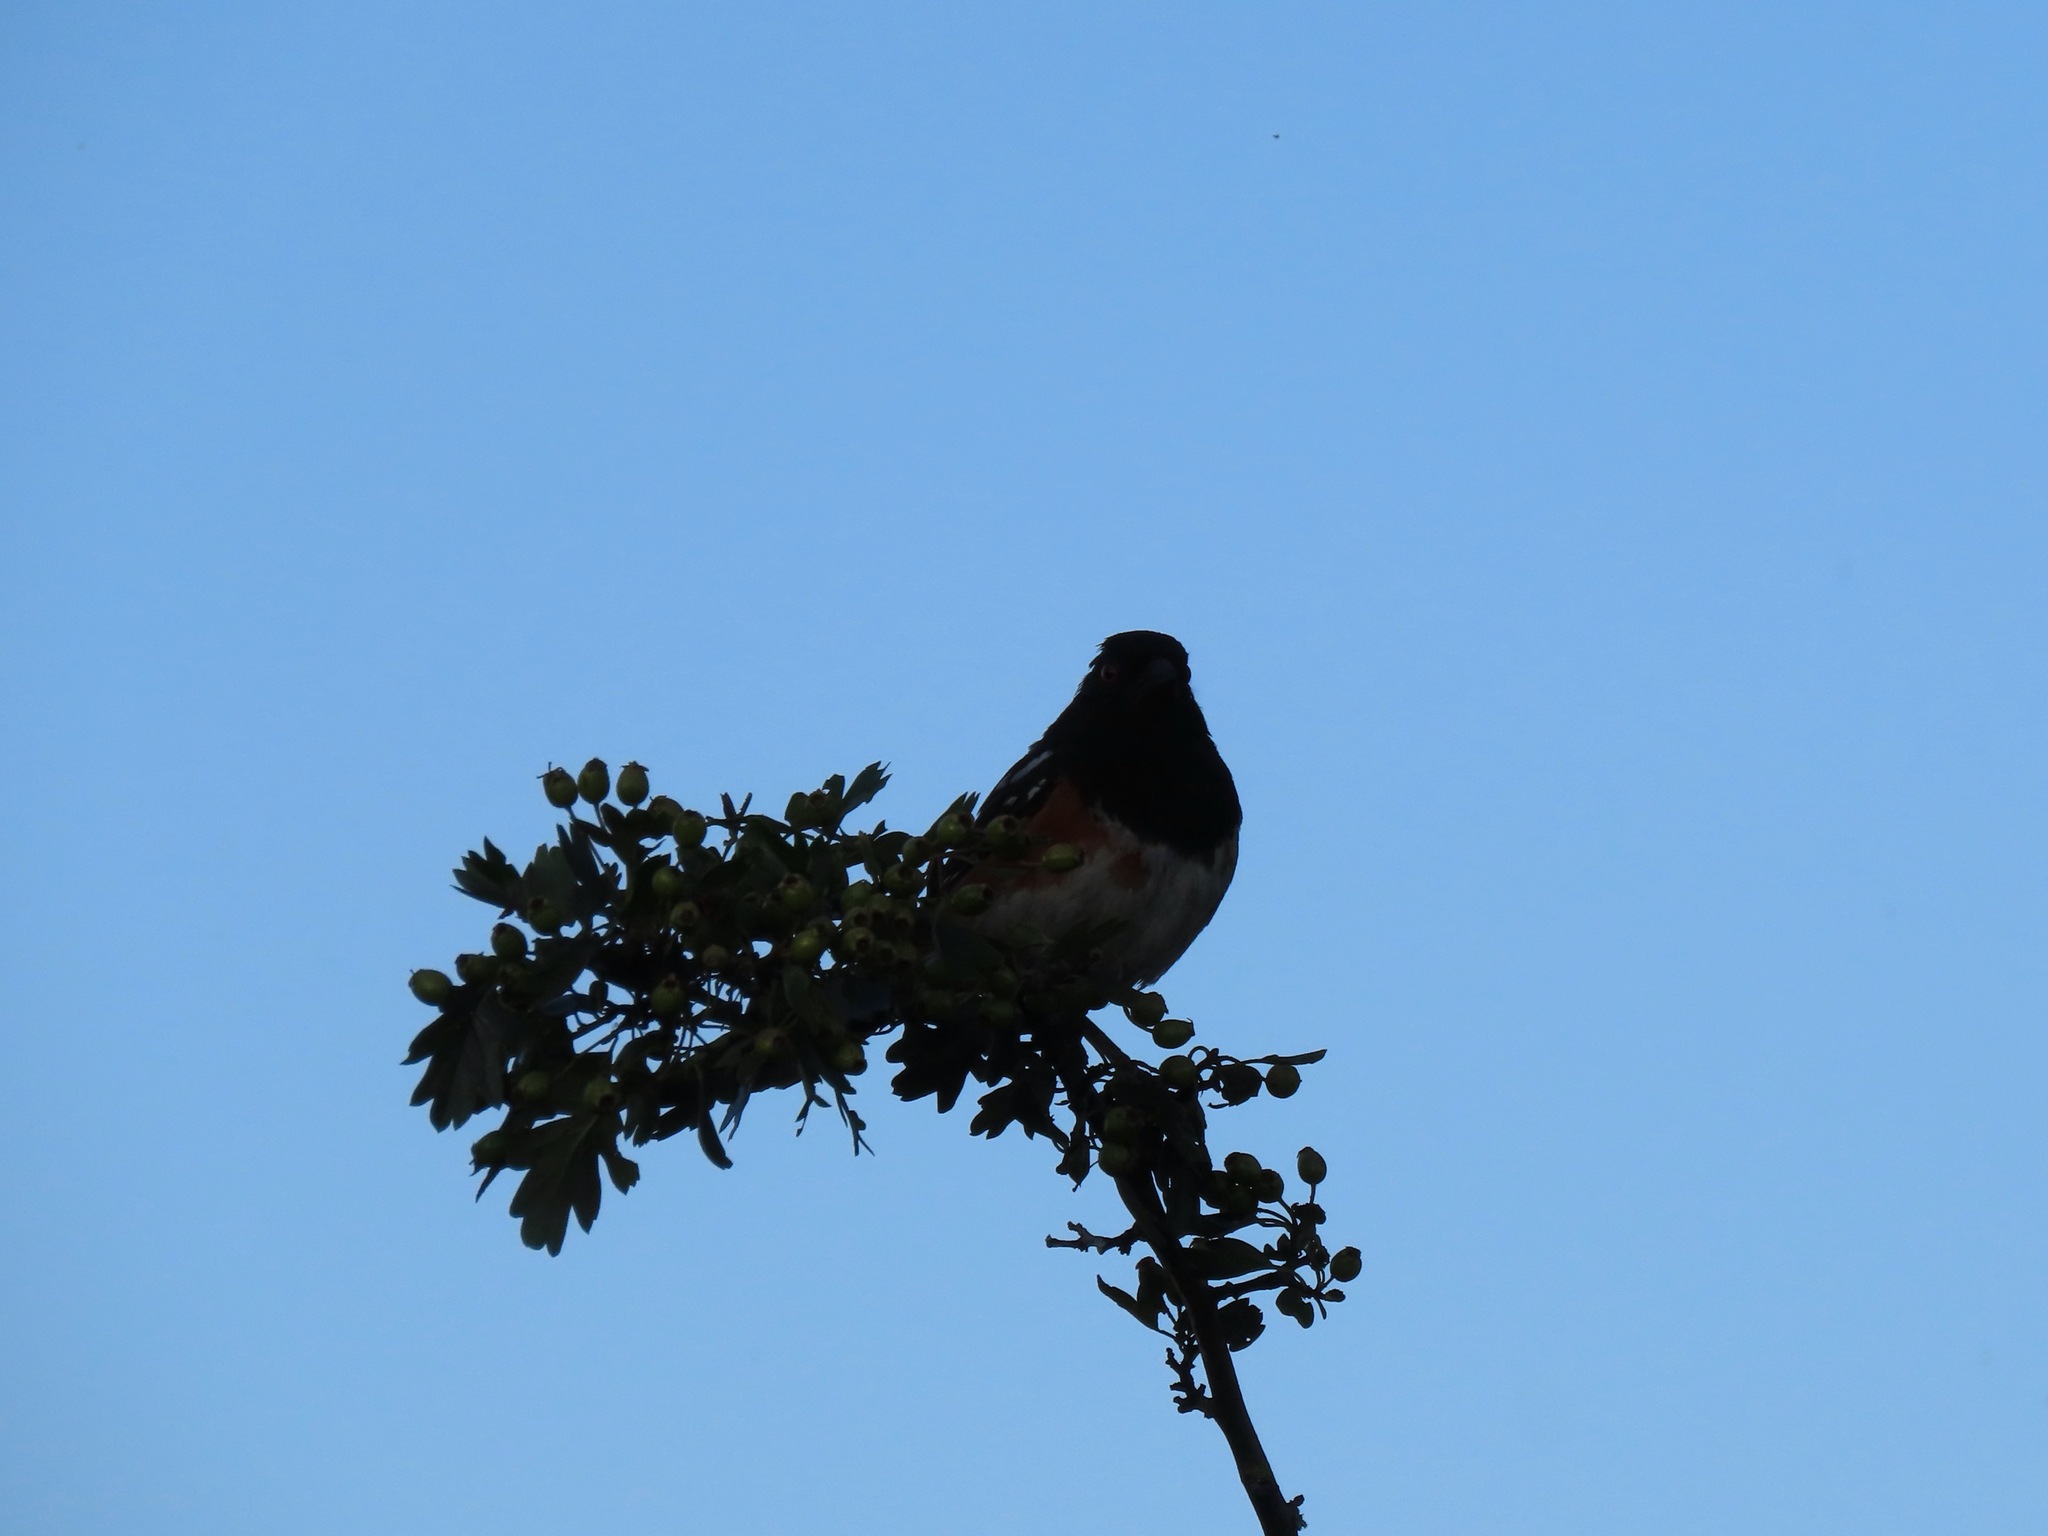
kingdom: Animalia
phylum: Chordata
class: Aves
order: Passeriformes
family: Passerellidae
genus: Pipilo
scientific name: Pipilo maculatus
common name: Spotted towhee
